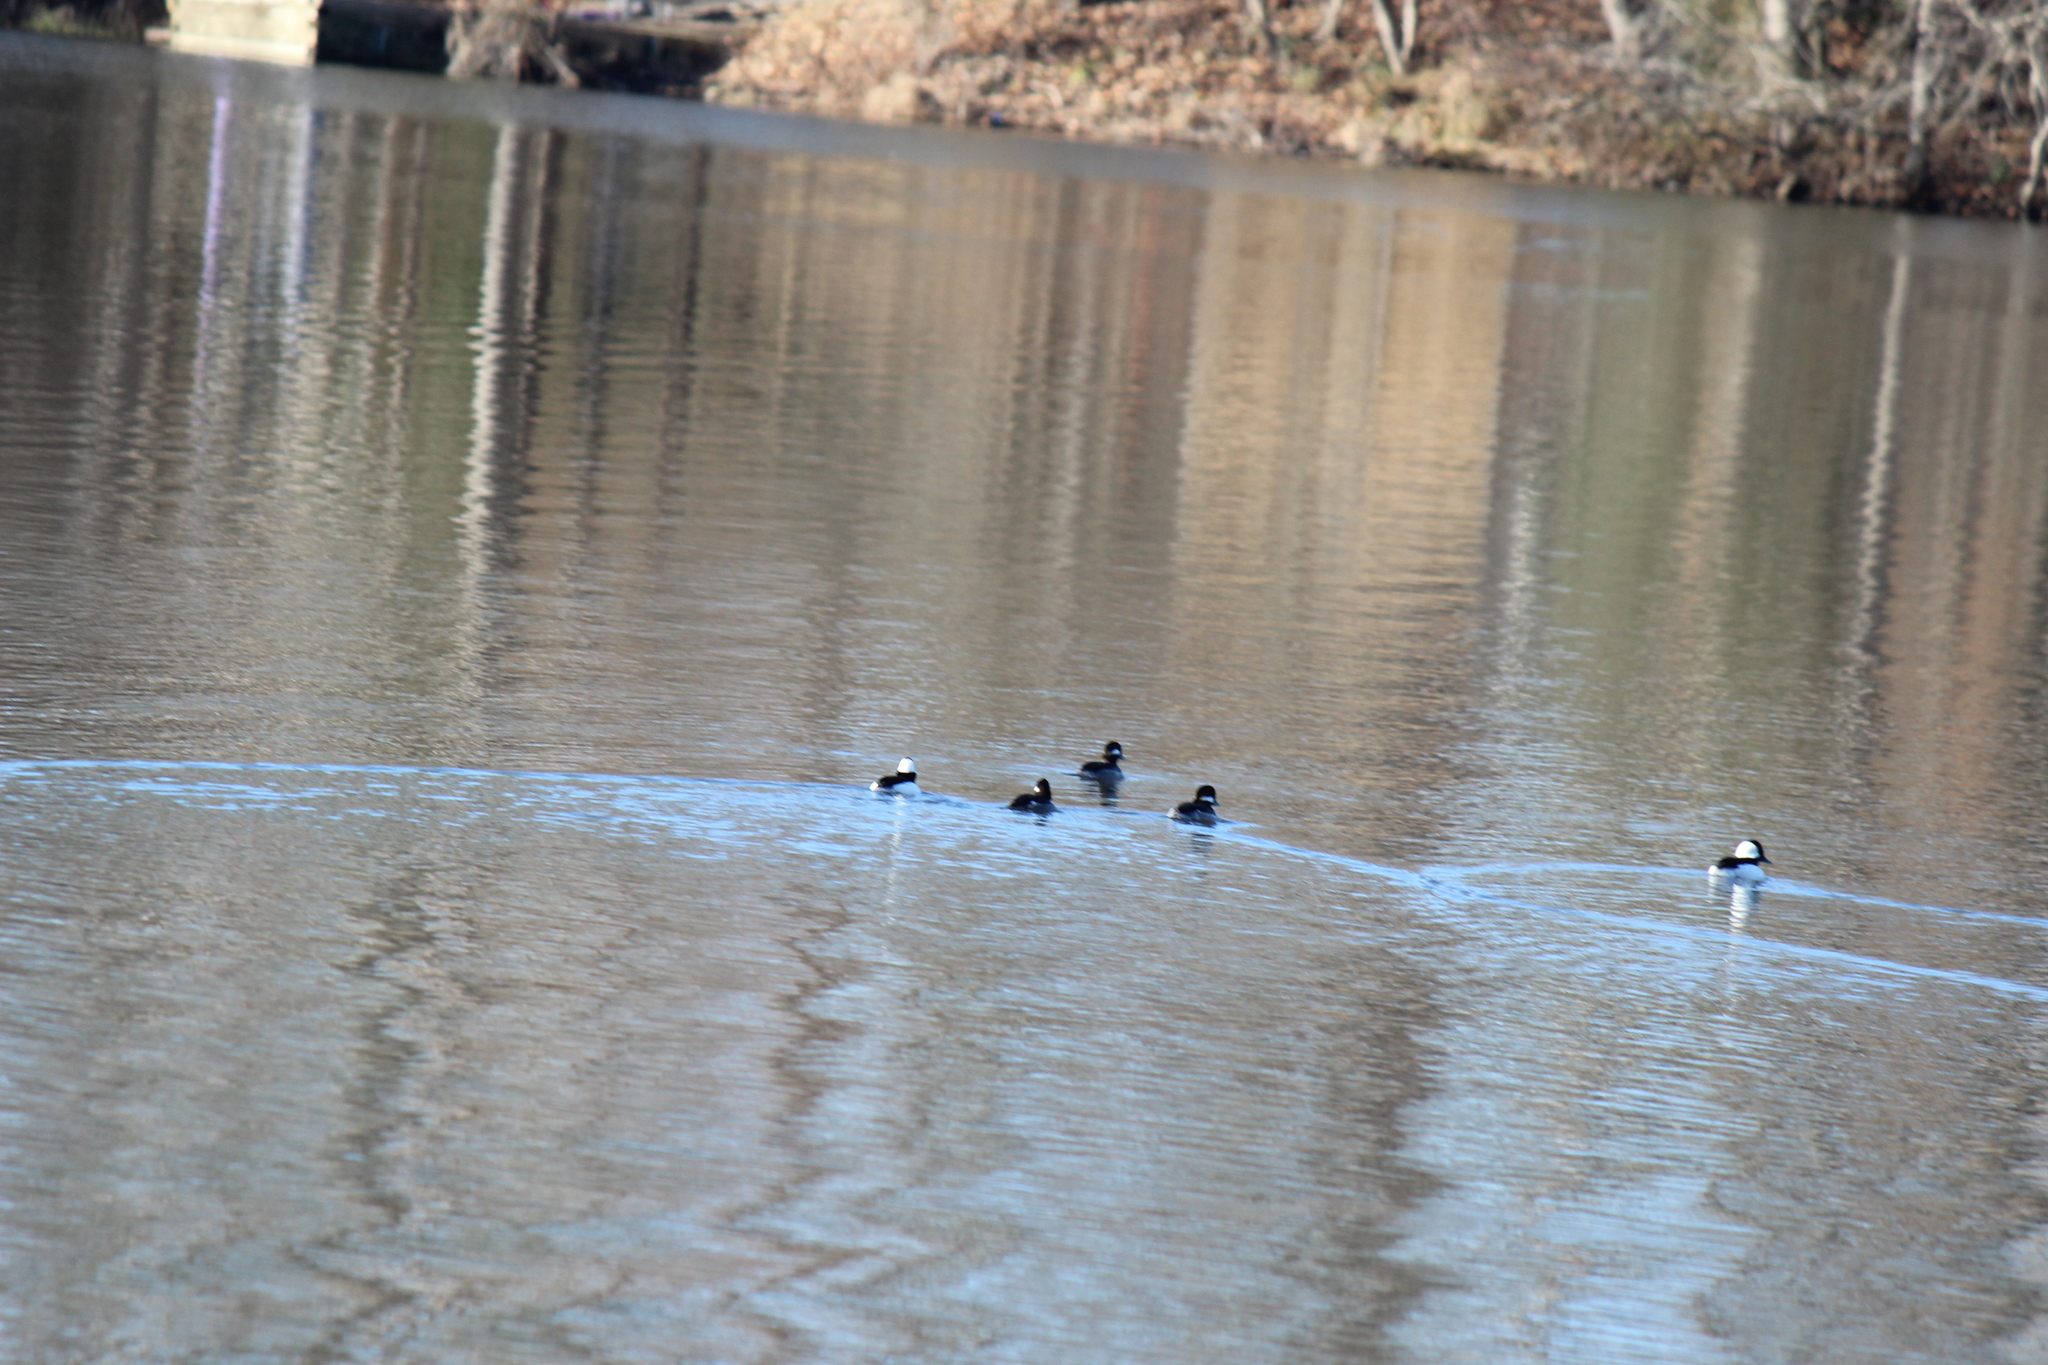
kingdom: Animalia
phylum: Chordata
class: Aves
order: Anseriformes
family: Anatidae
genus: Bucephala
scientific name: Bucephala albeola
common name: Bufflehead
